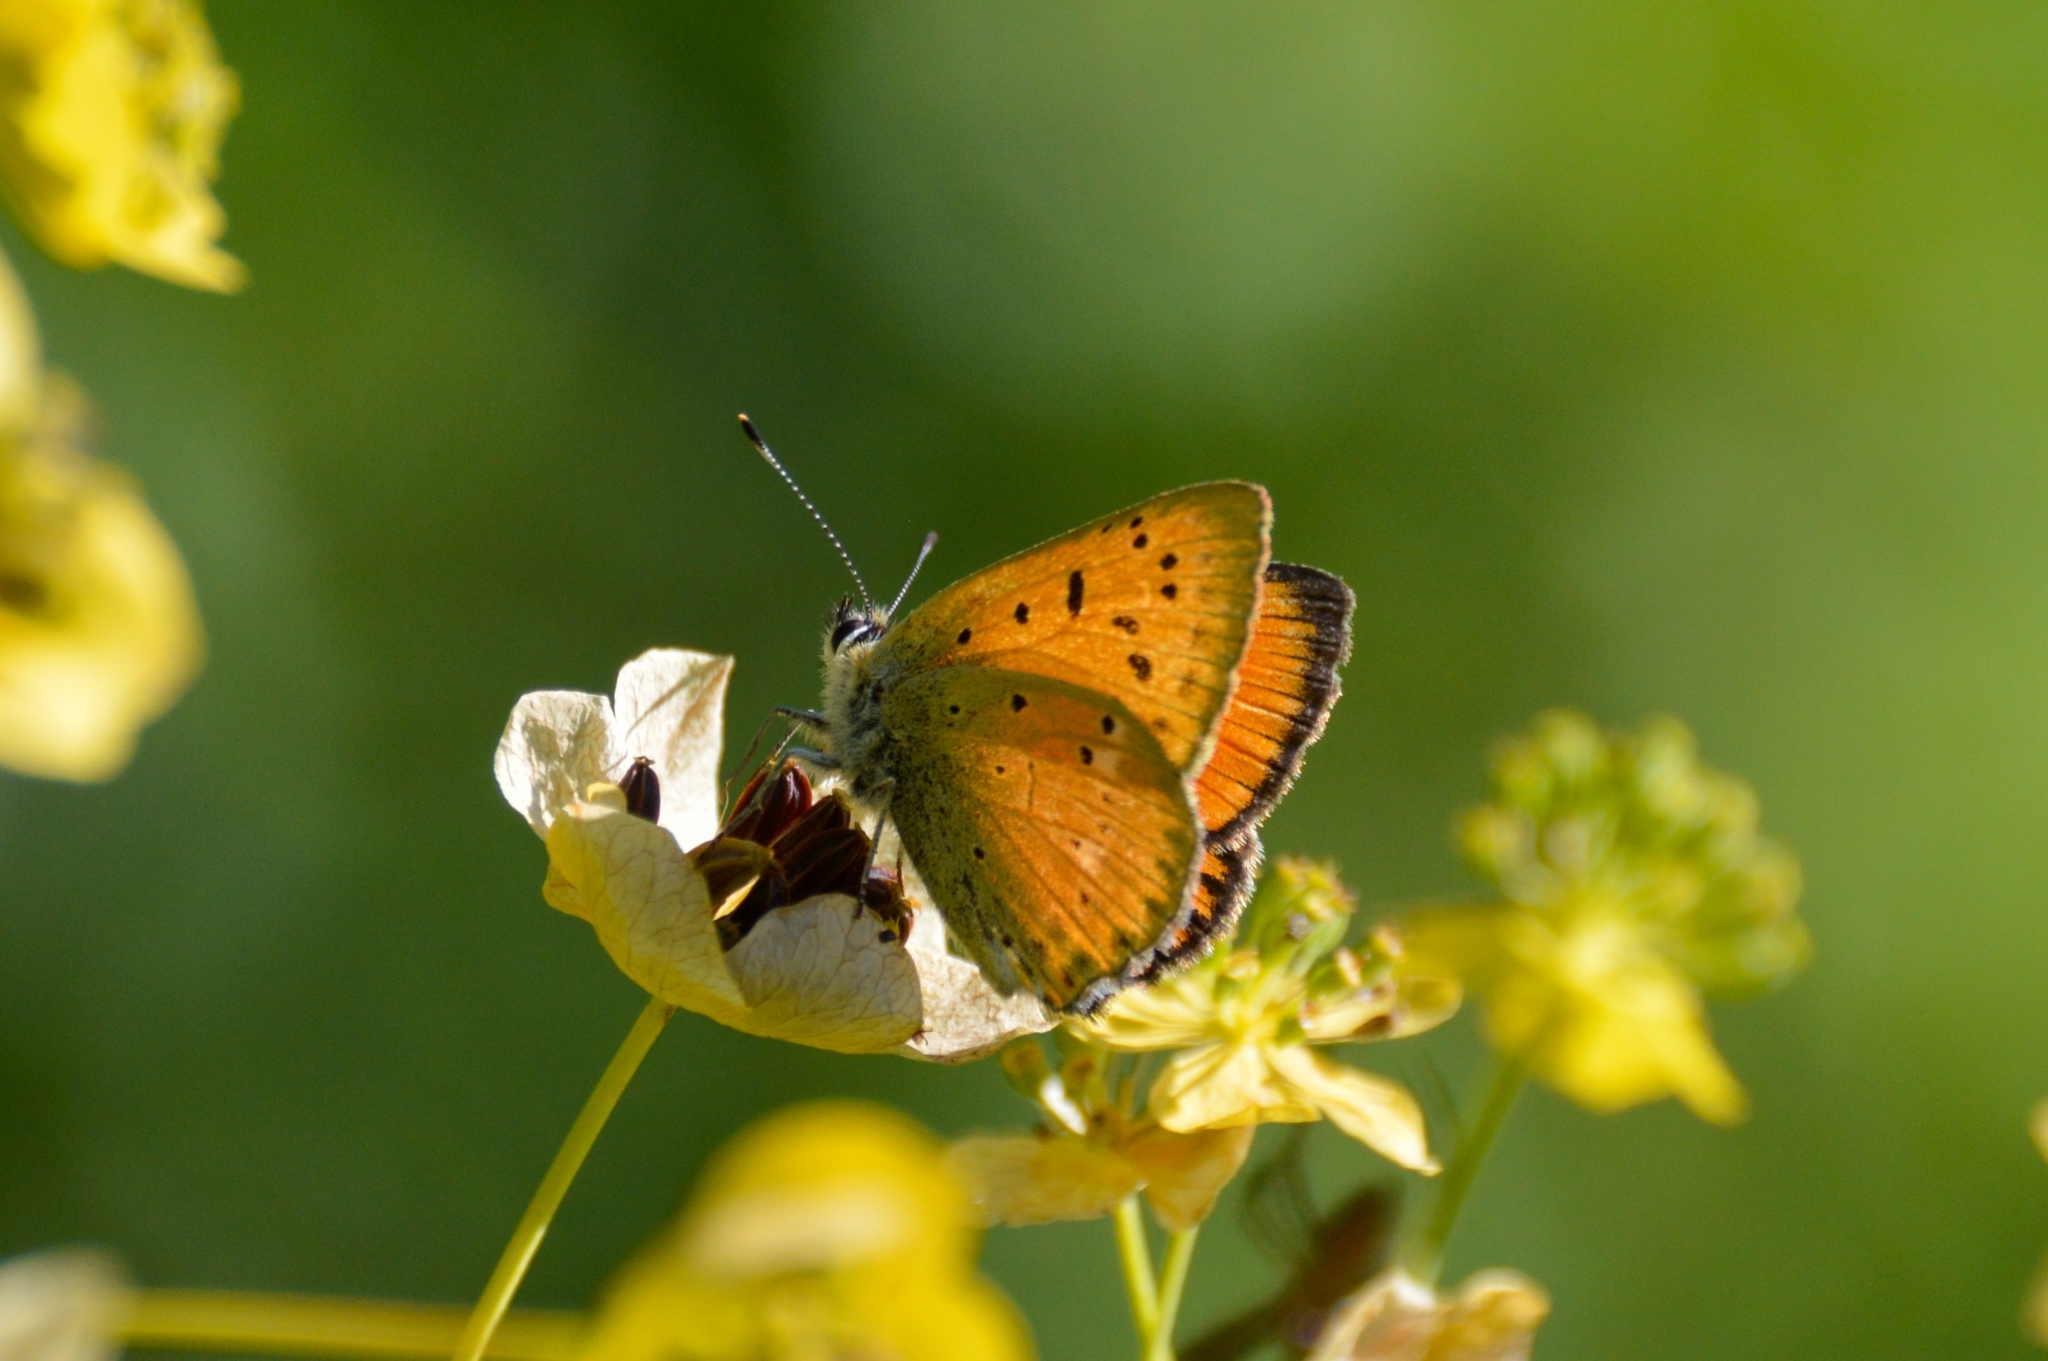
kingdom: Animalia
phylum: Arthropoda
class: Insecta
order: Lepidoptera
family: Lycaenidae
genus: Lycaena
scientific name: Lycaena virgaureae
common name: Scarce copper
